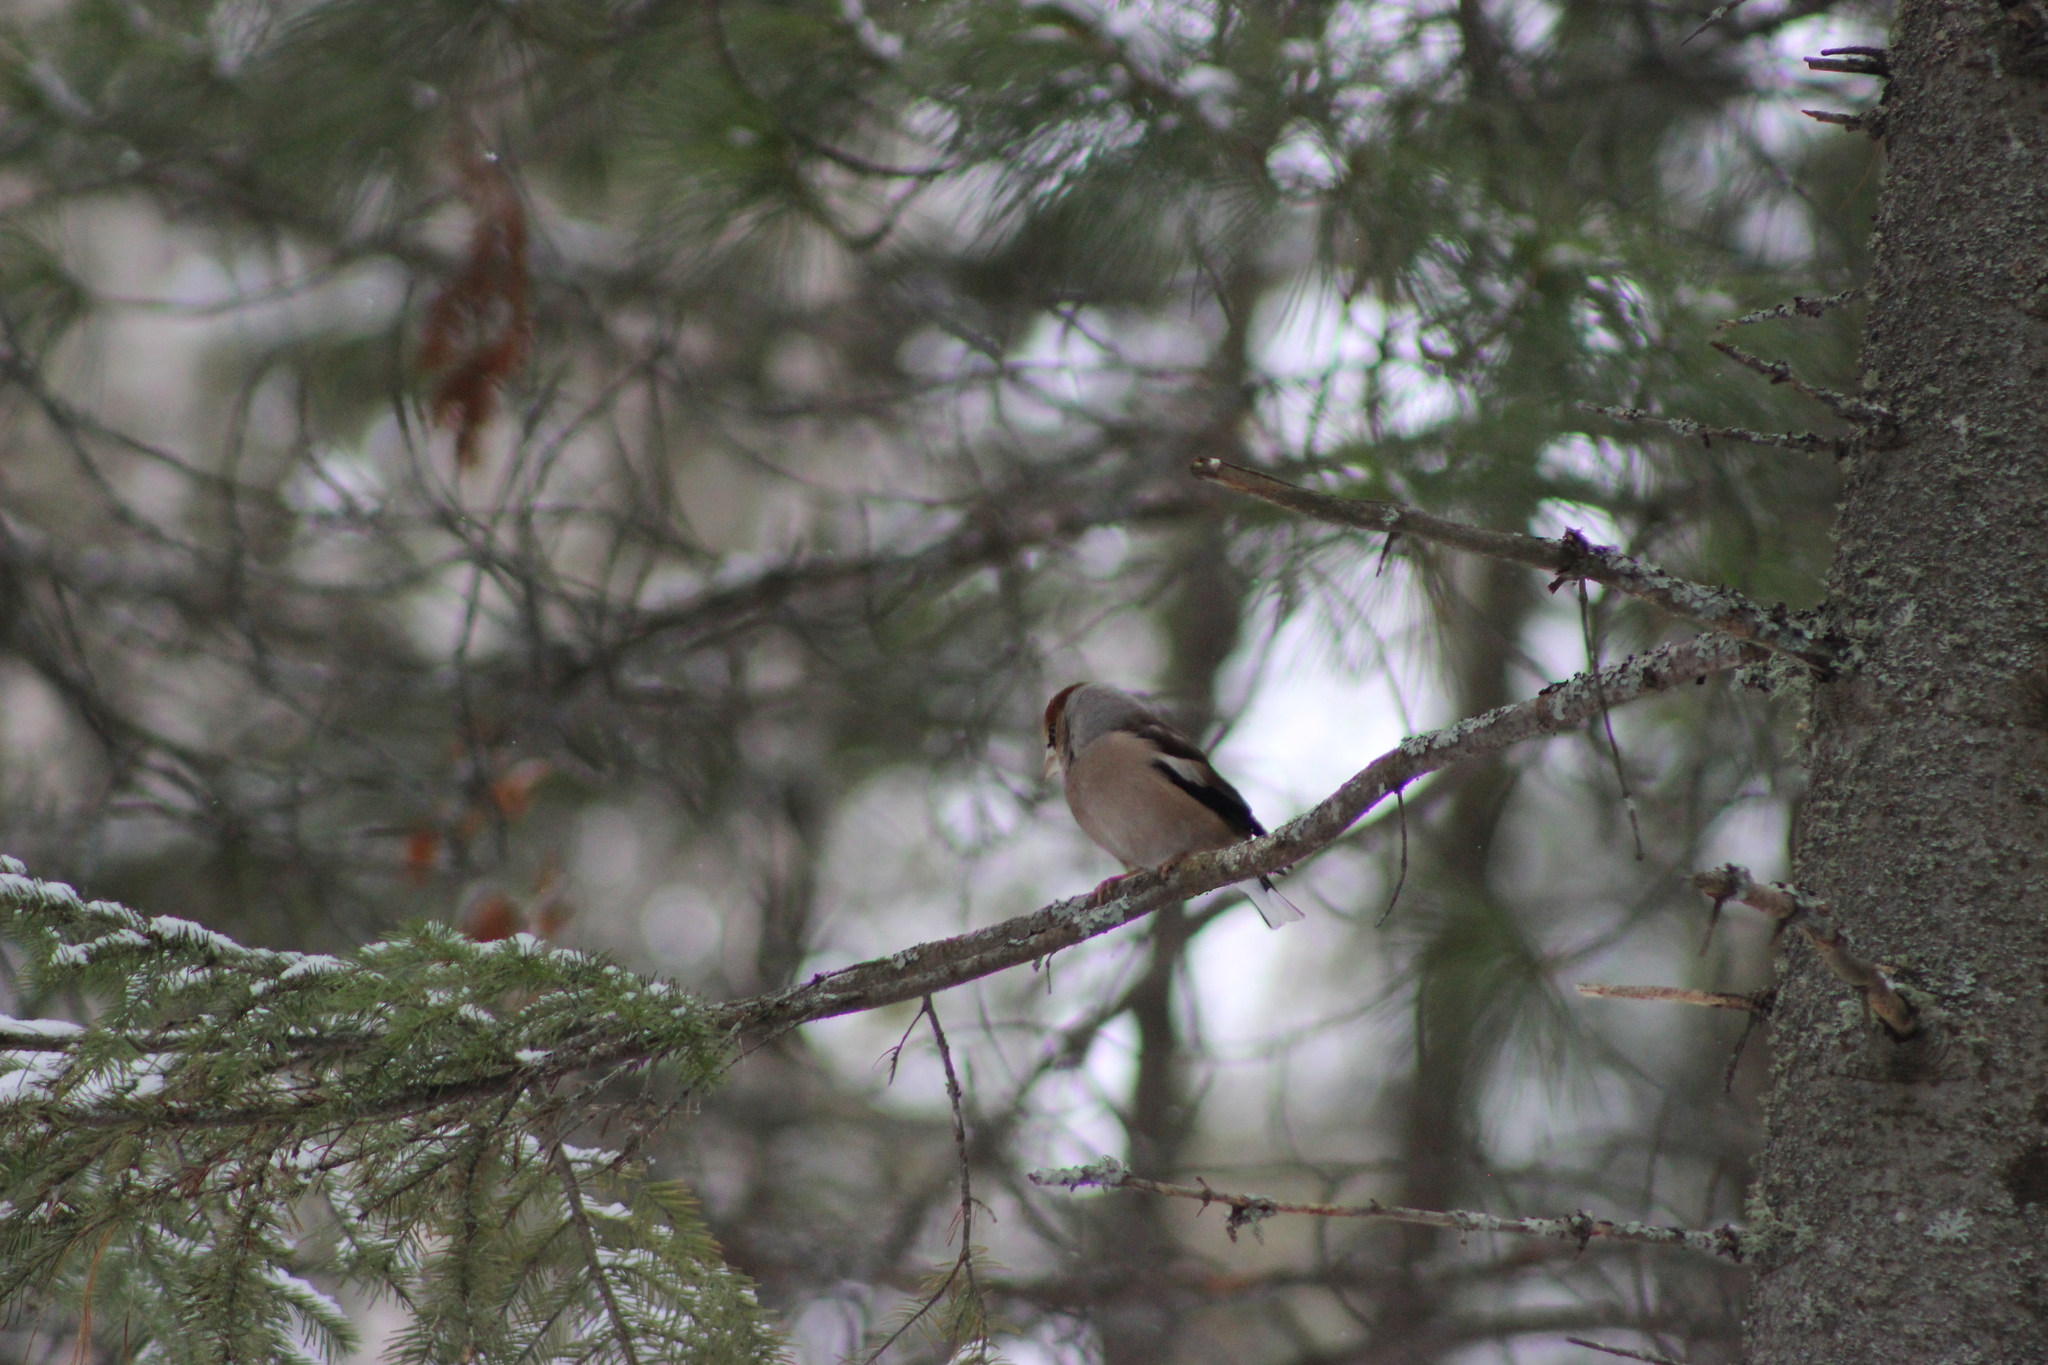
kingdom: Animalia
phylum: Chordata
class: Aves
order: Passeriformes
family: Fringillidae
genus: Coccothraustes
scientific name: Coccothraustes coccothraustes
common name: Hawfinch
